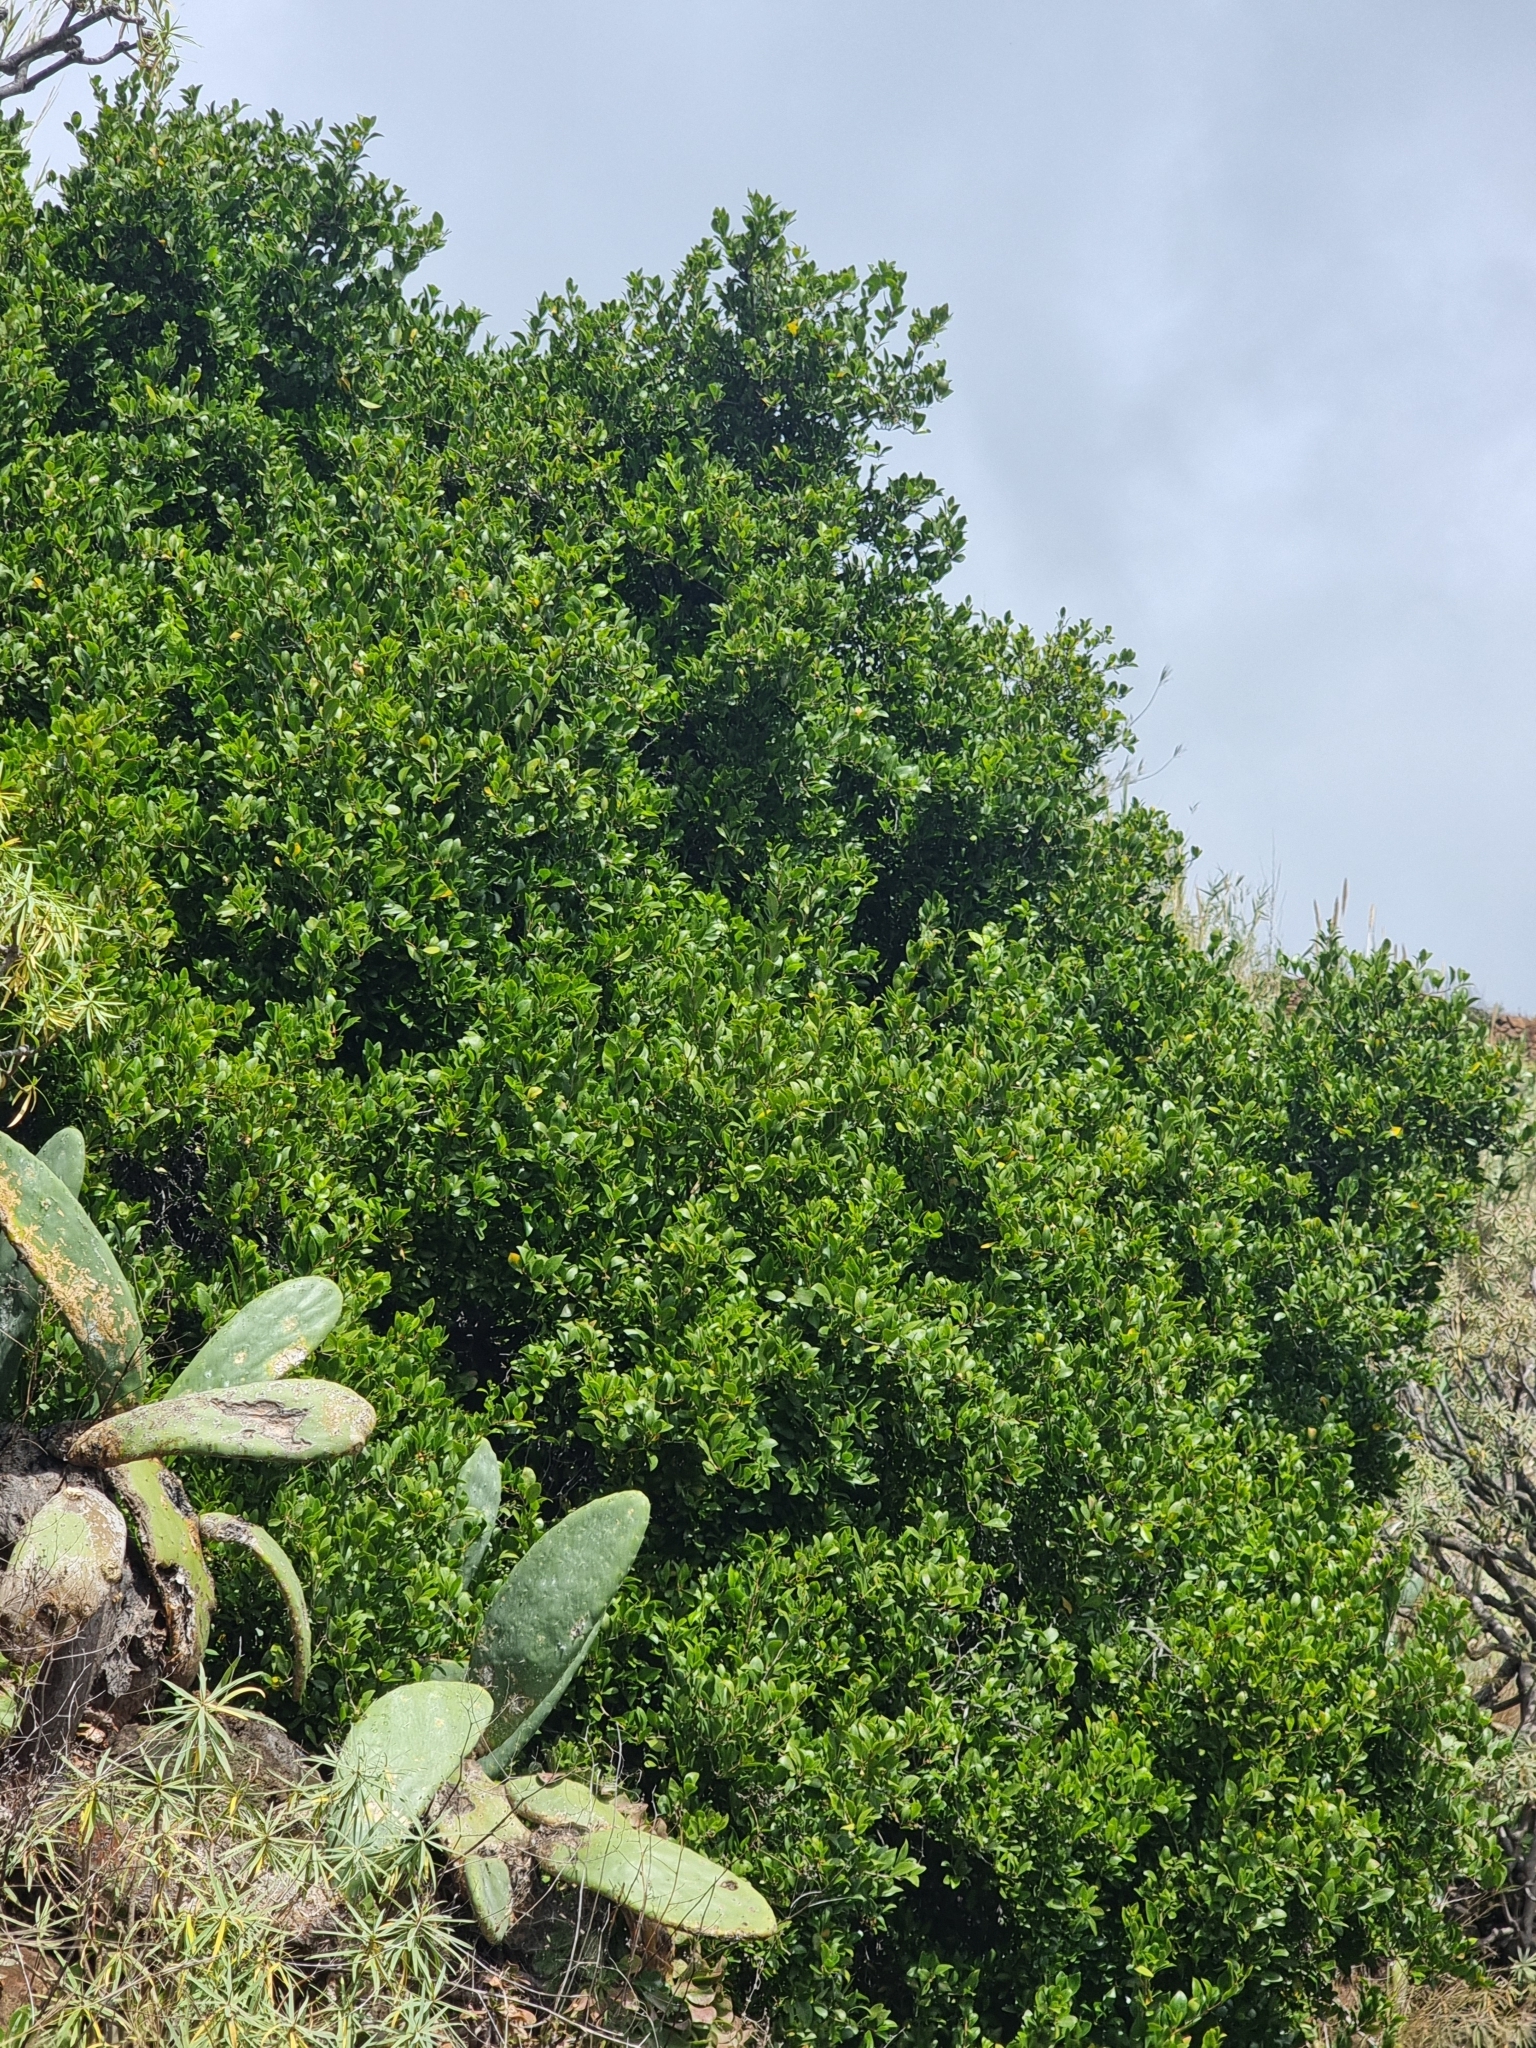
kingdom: Plantae
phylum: Tracheophyta
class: Magnoliopsida
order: Celastrales
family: Celastraceae
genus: Gymnosporia
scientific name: Gymnosporia dryandri
